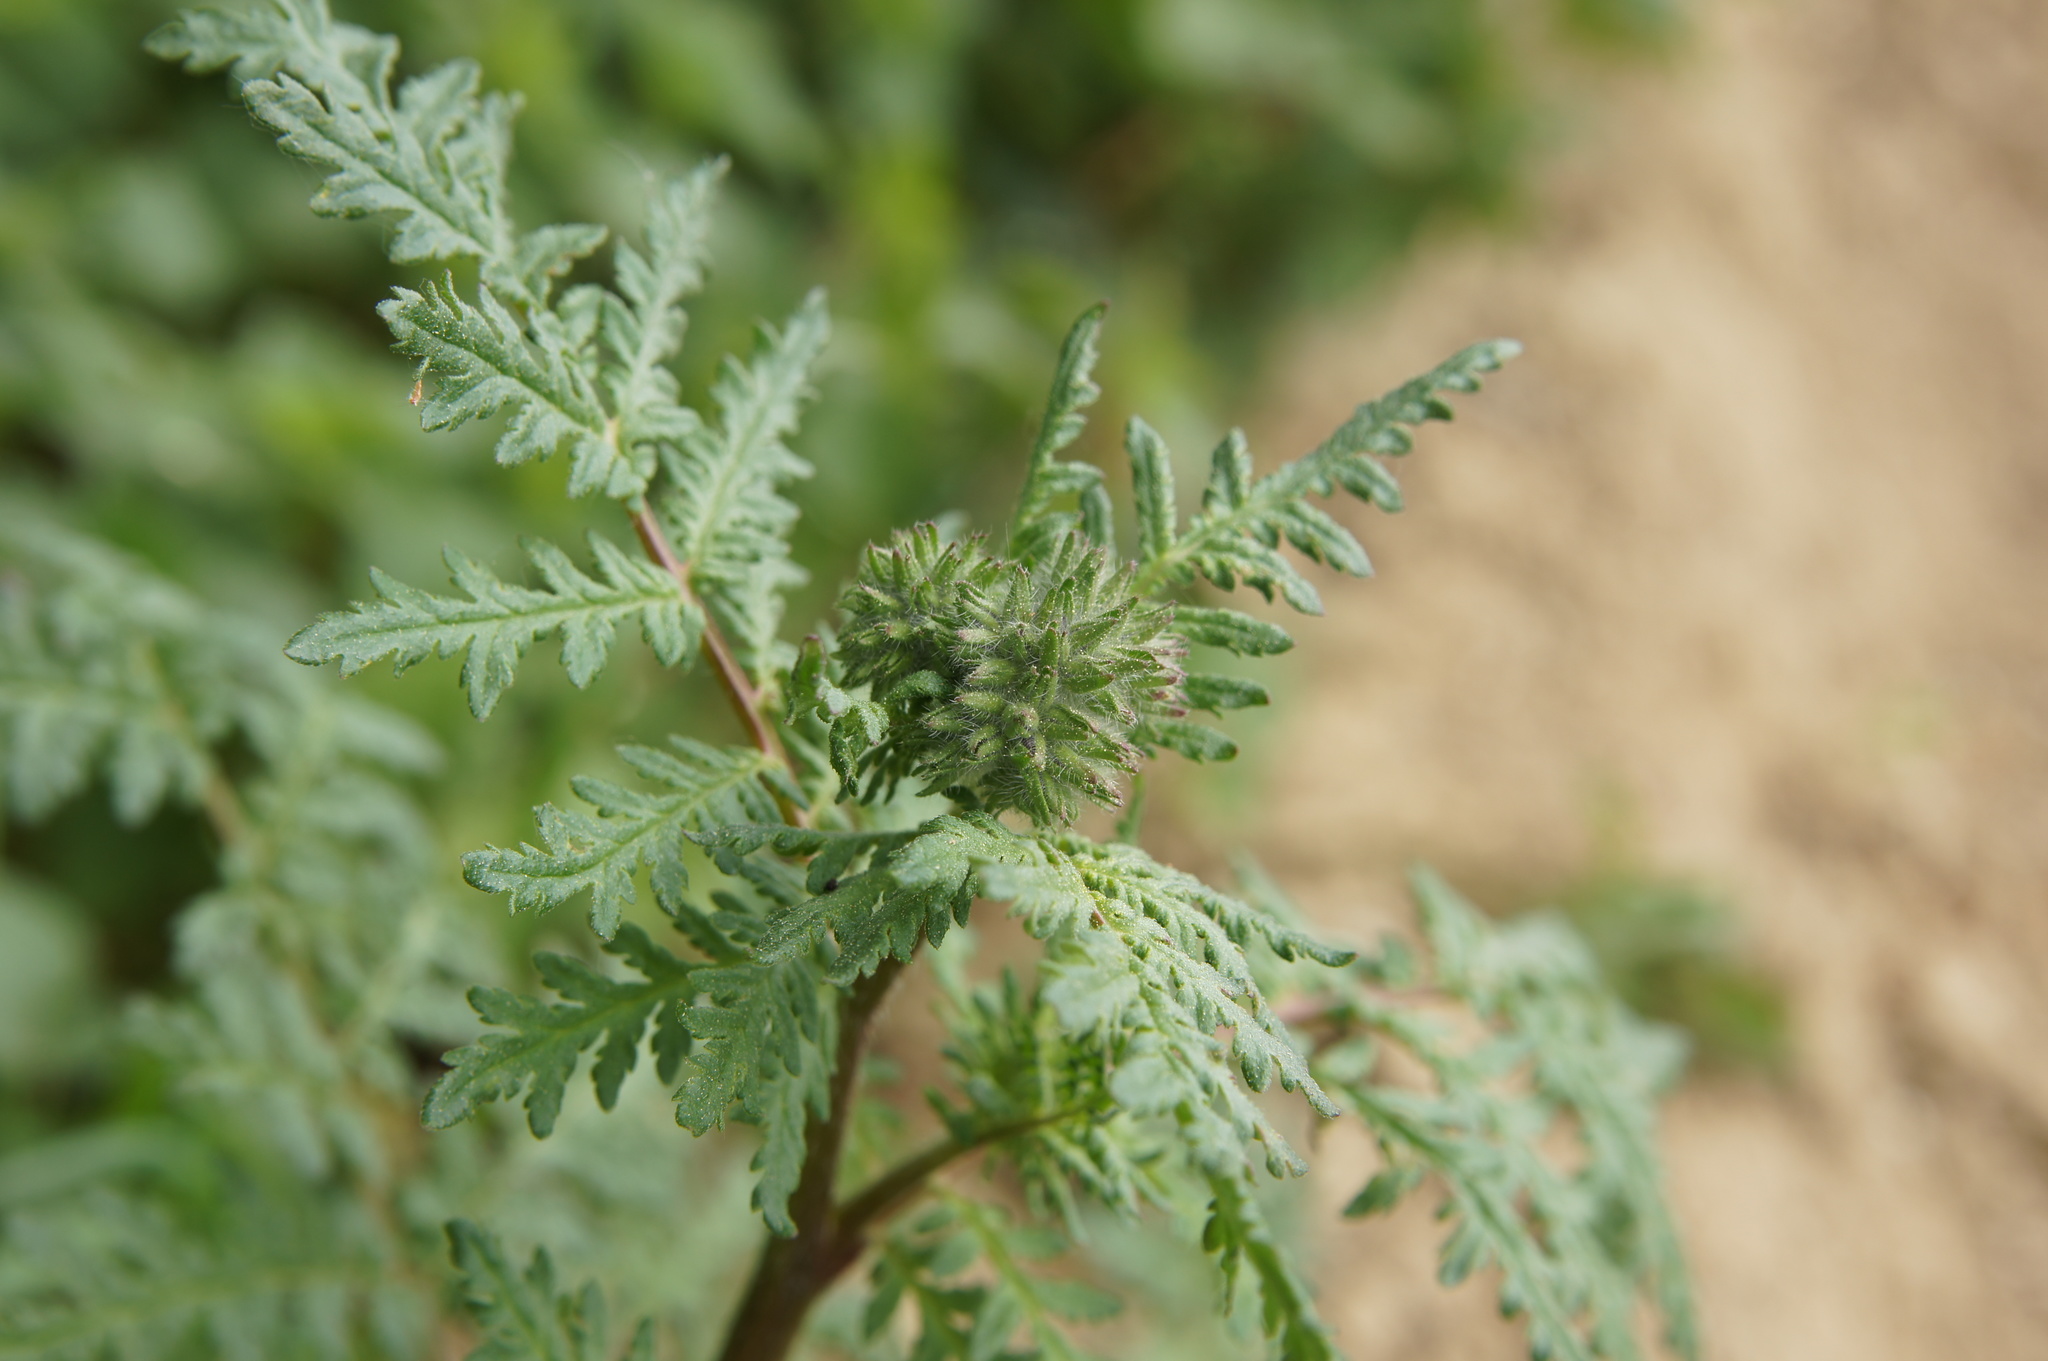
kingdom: Plantae
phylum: Tracheophyta
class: Magnoliopsida
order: Boraginales
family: Hydrophyllaceae
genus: Phacelia
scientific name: Phacelia tanacetifolia
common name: Phacelia
